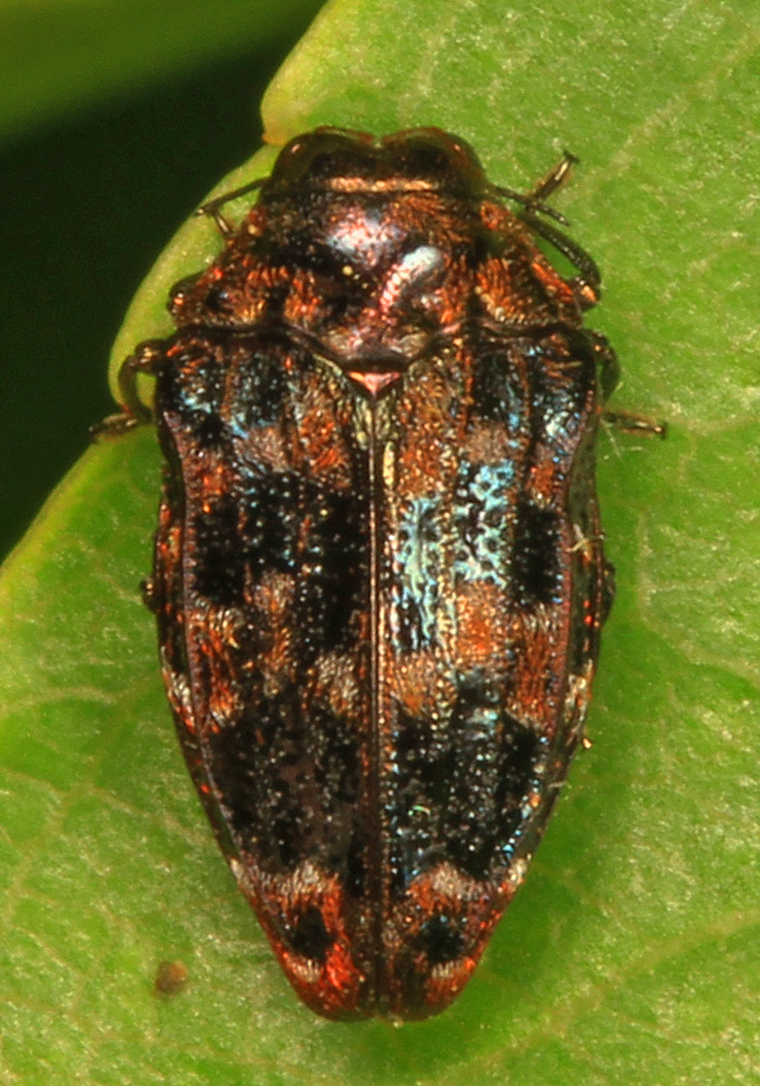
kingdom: Animalia
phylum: Arthropoda
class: Insecta
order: Coleoptera
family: Buprestidae
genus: Brachys
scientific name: Brachys ovatus
